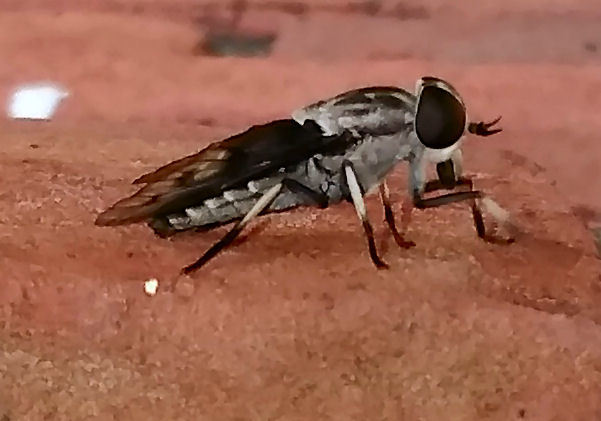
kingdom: Animalia
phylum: Arthropoda
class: Insecta
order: Diptera
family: Tabanidae
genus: Tabanus
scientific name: Tabanus trimaculatus
